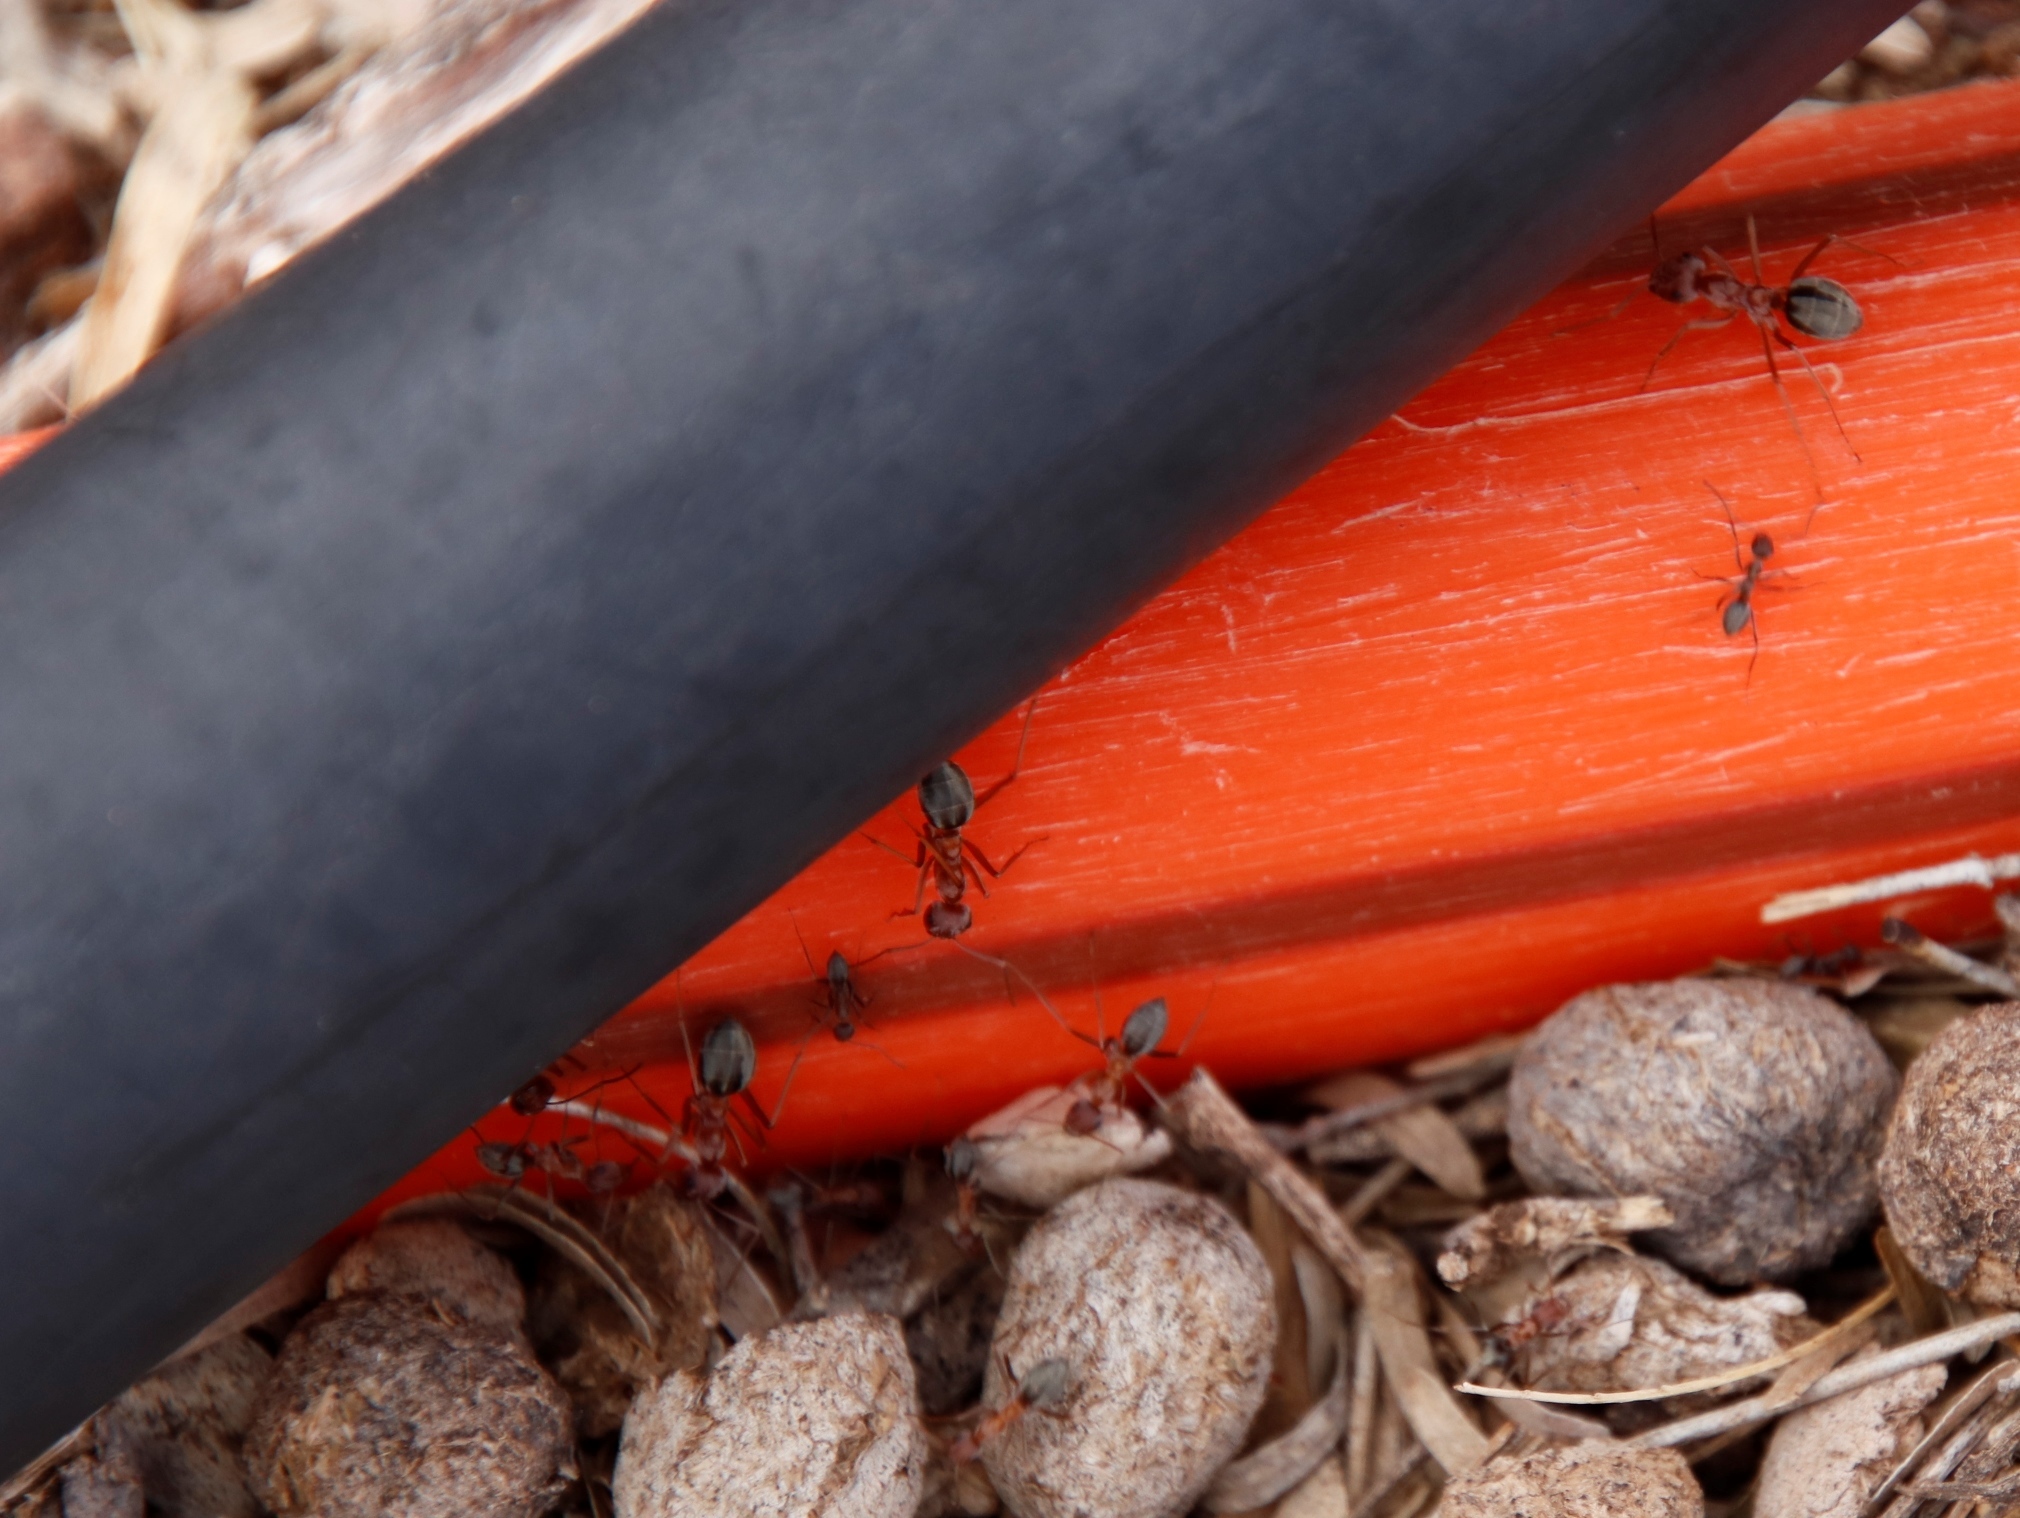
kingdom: Animalia
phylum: Arthropoda
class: Insecta
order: Hymenoptera
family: Formicidae
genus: Anoplolepis
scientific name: Anoplolepis custodiens
